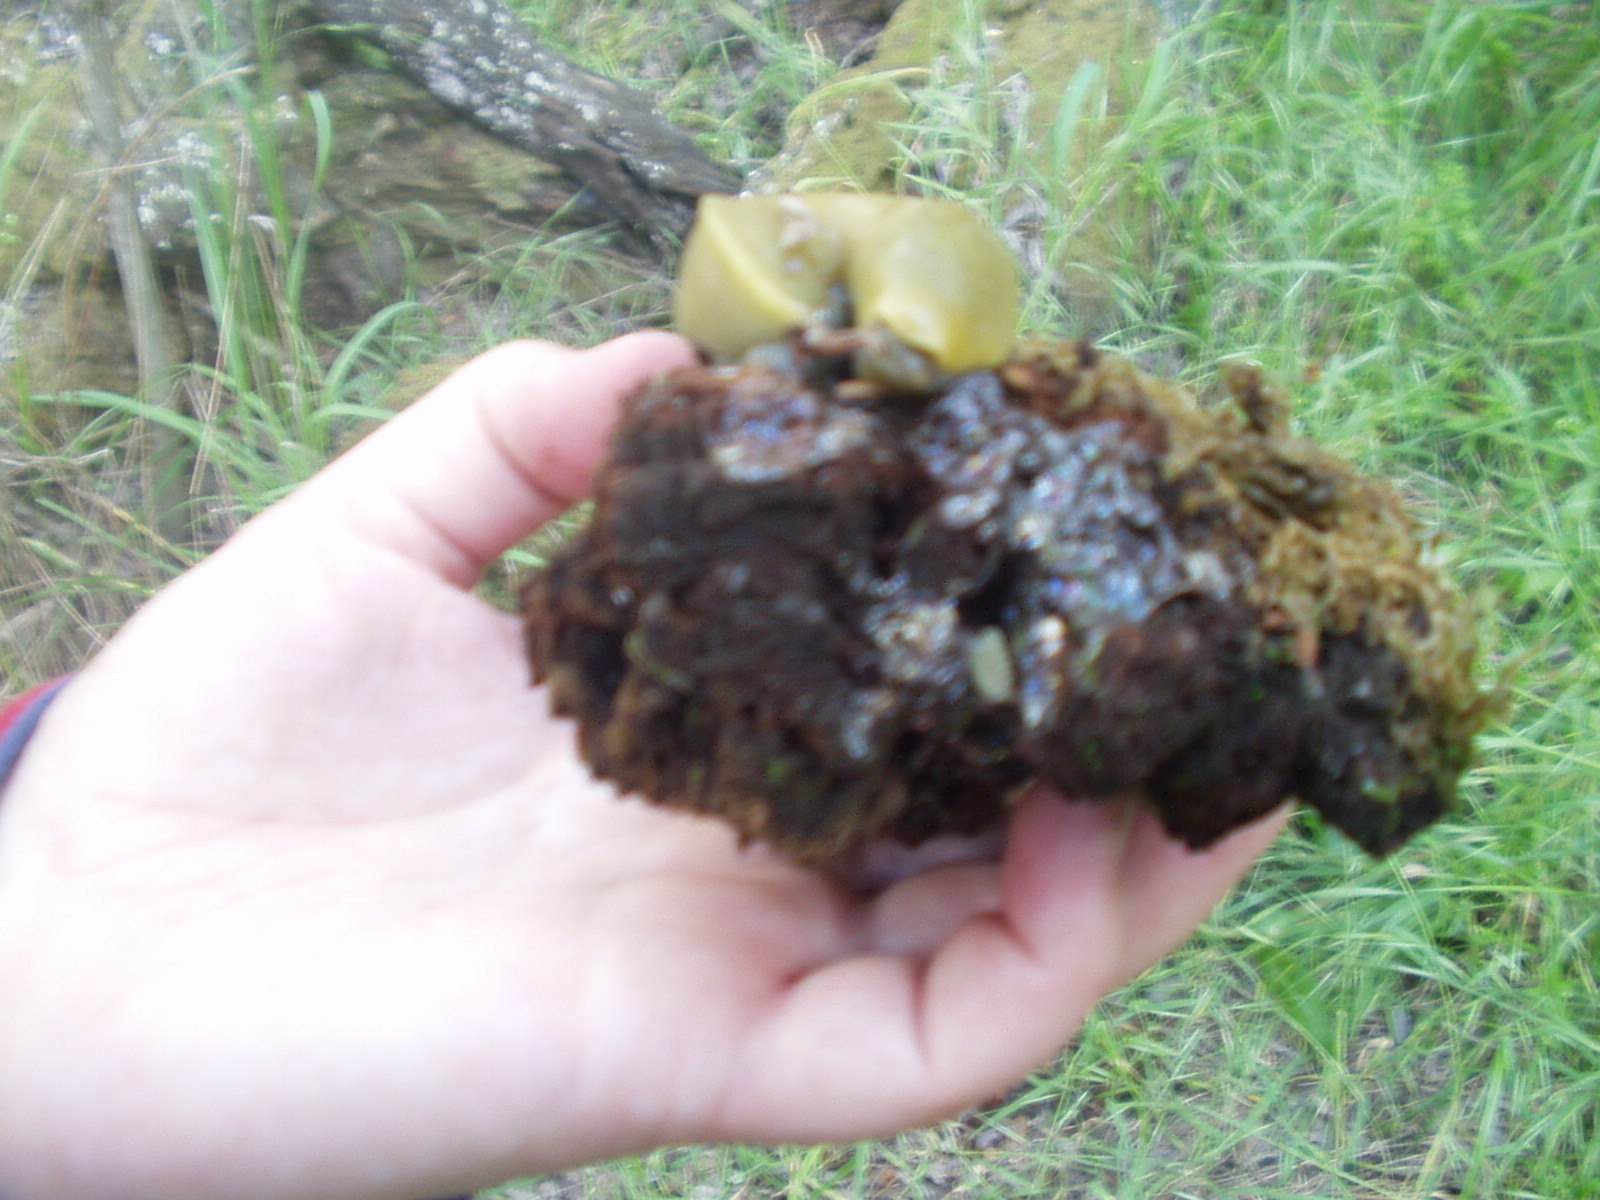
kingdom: Animalia
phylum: Mollusca
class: Gastropoda
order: Stylommatophora
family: Ariolimacidae
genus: Ariolimax
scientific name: Ariolimax stramineus
